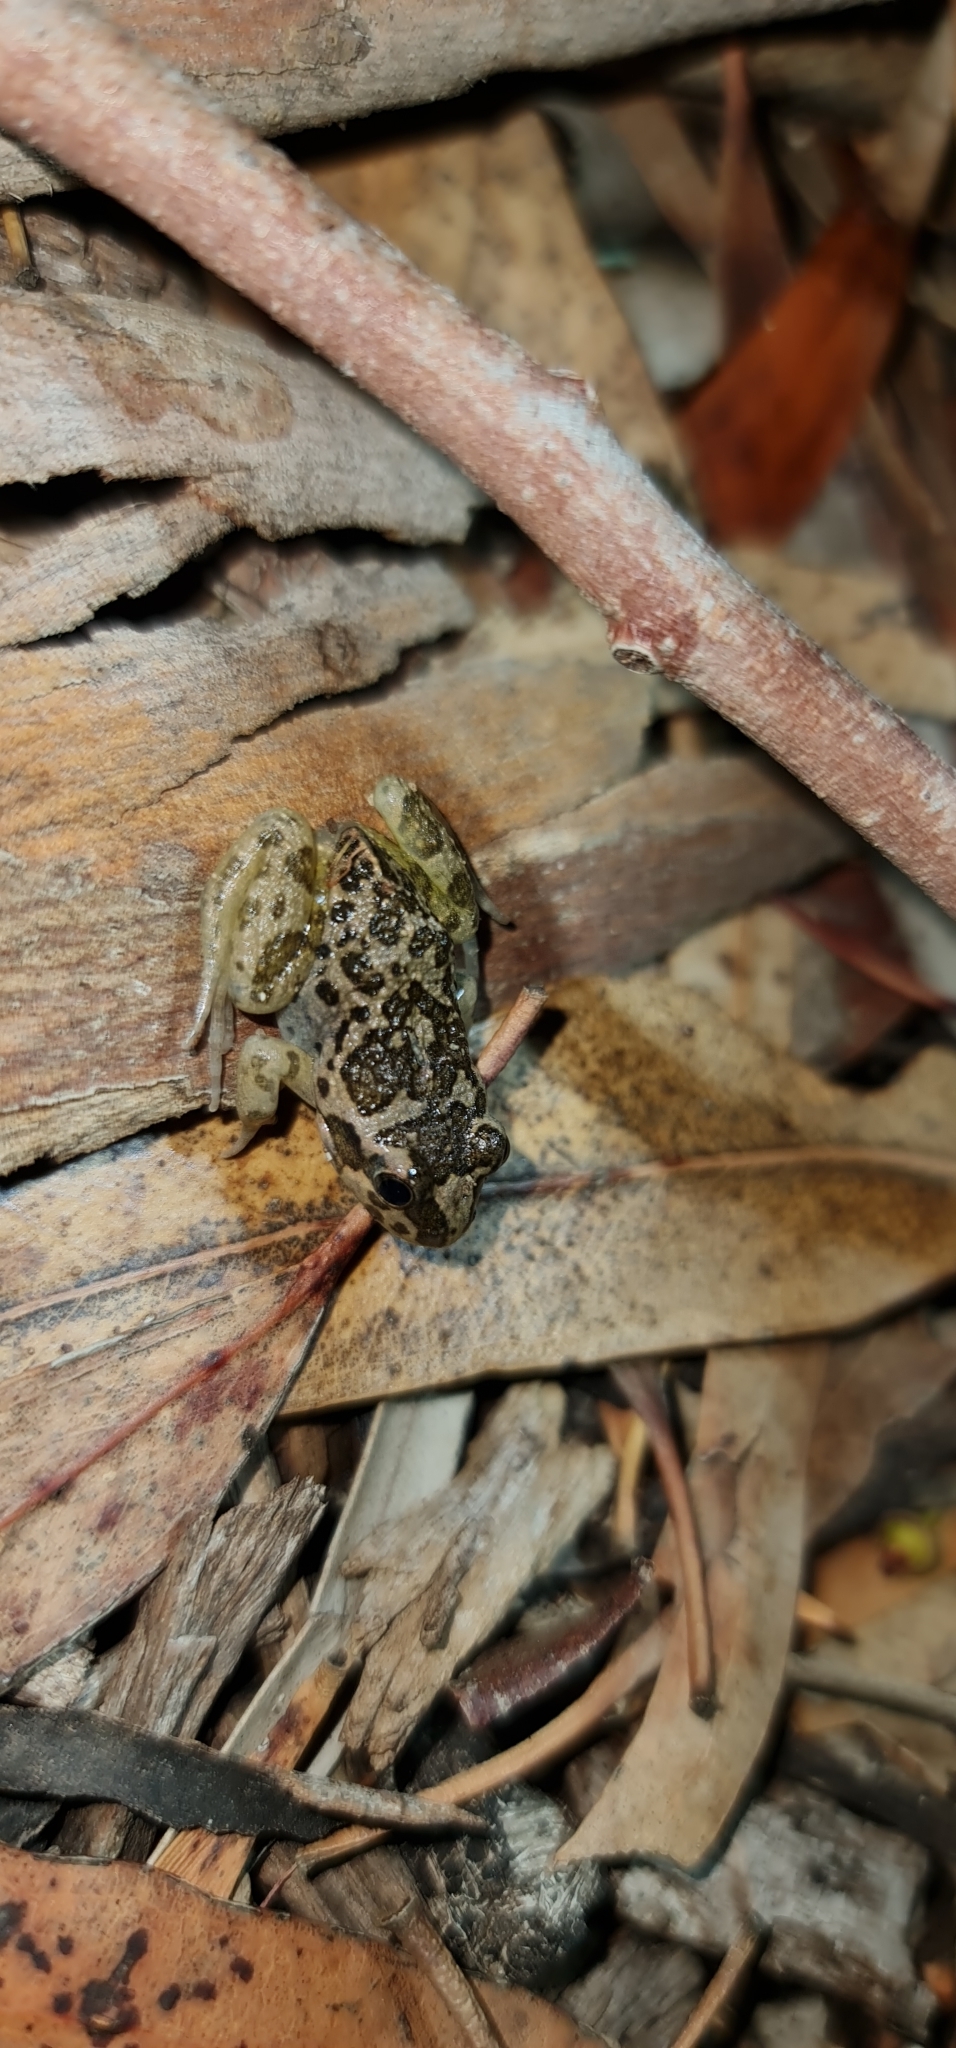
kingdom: Animalia
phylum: Chordata
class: Amphibia
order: Anura
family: Limnodynastidae
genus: Limnodynastes
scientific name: Limnodynastes tasmaniensis
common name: Spotted marsh frog
